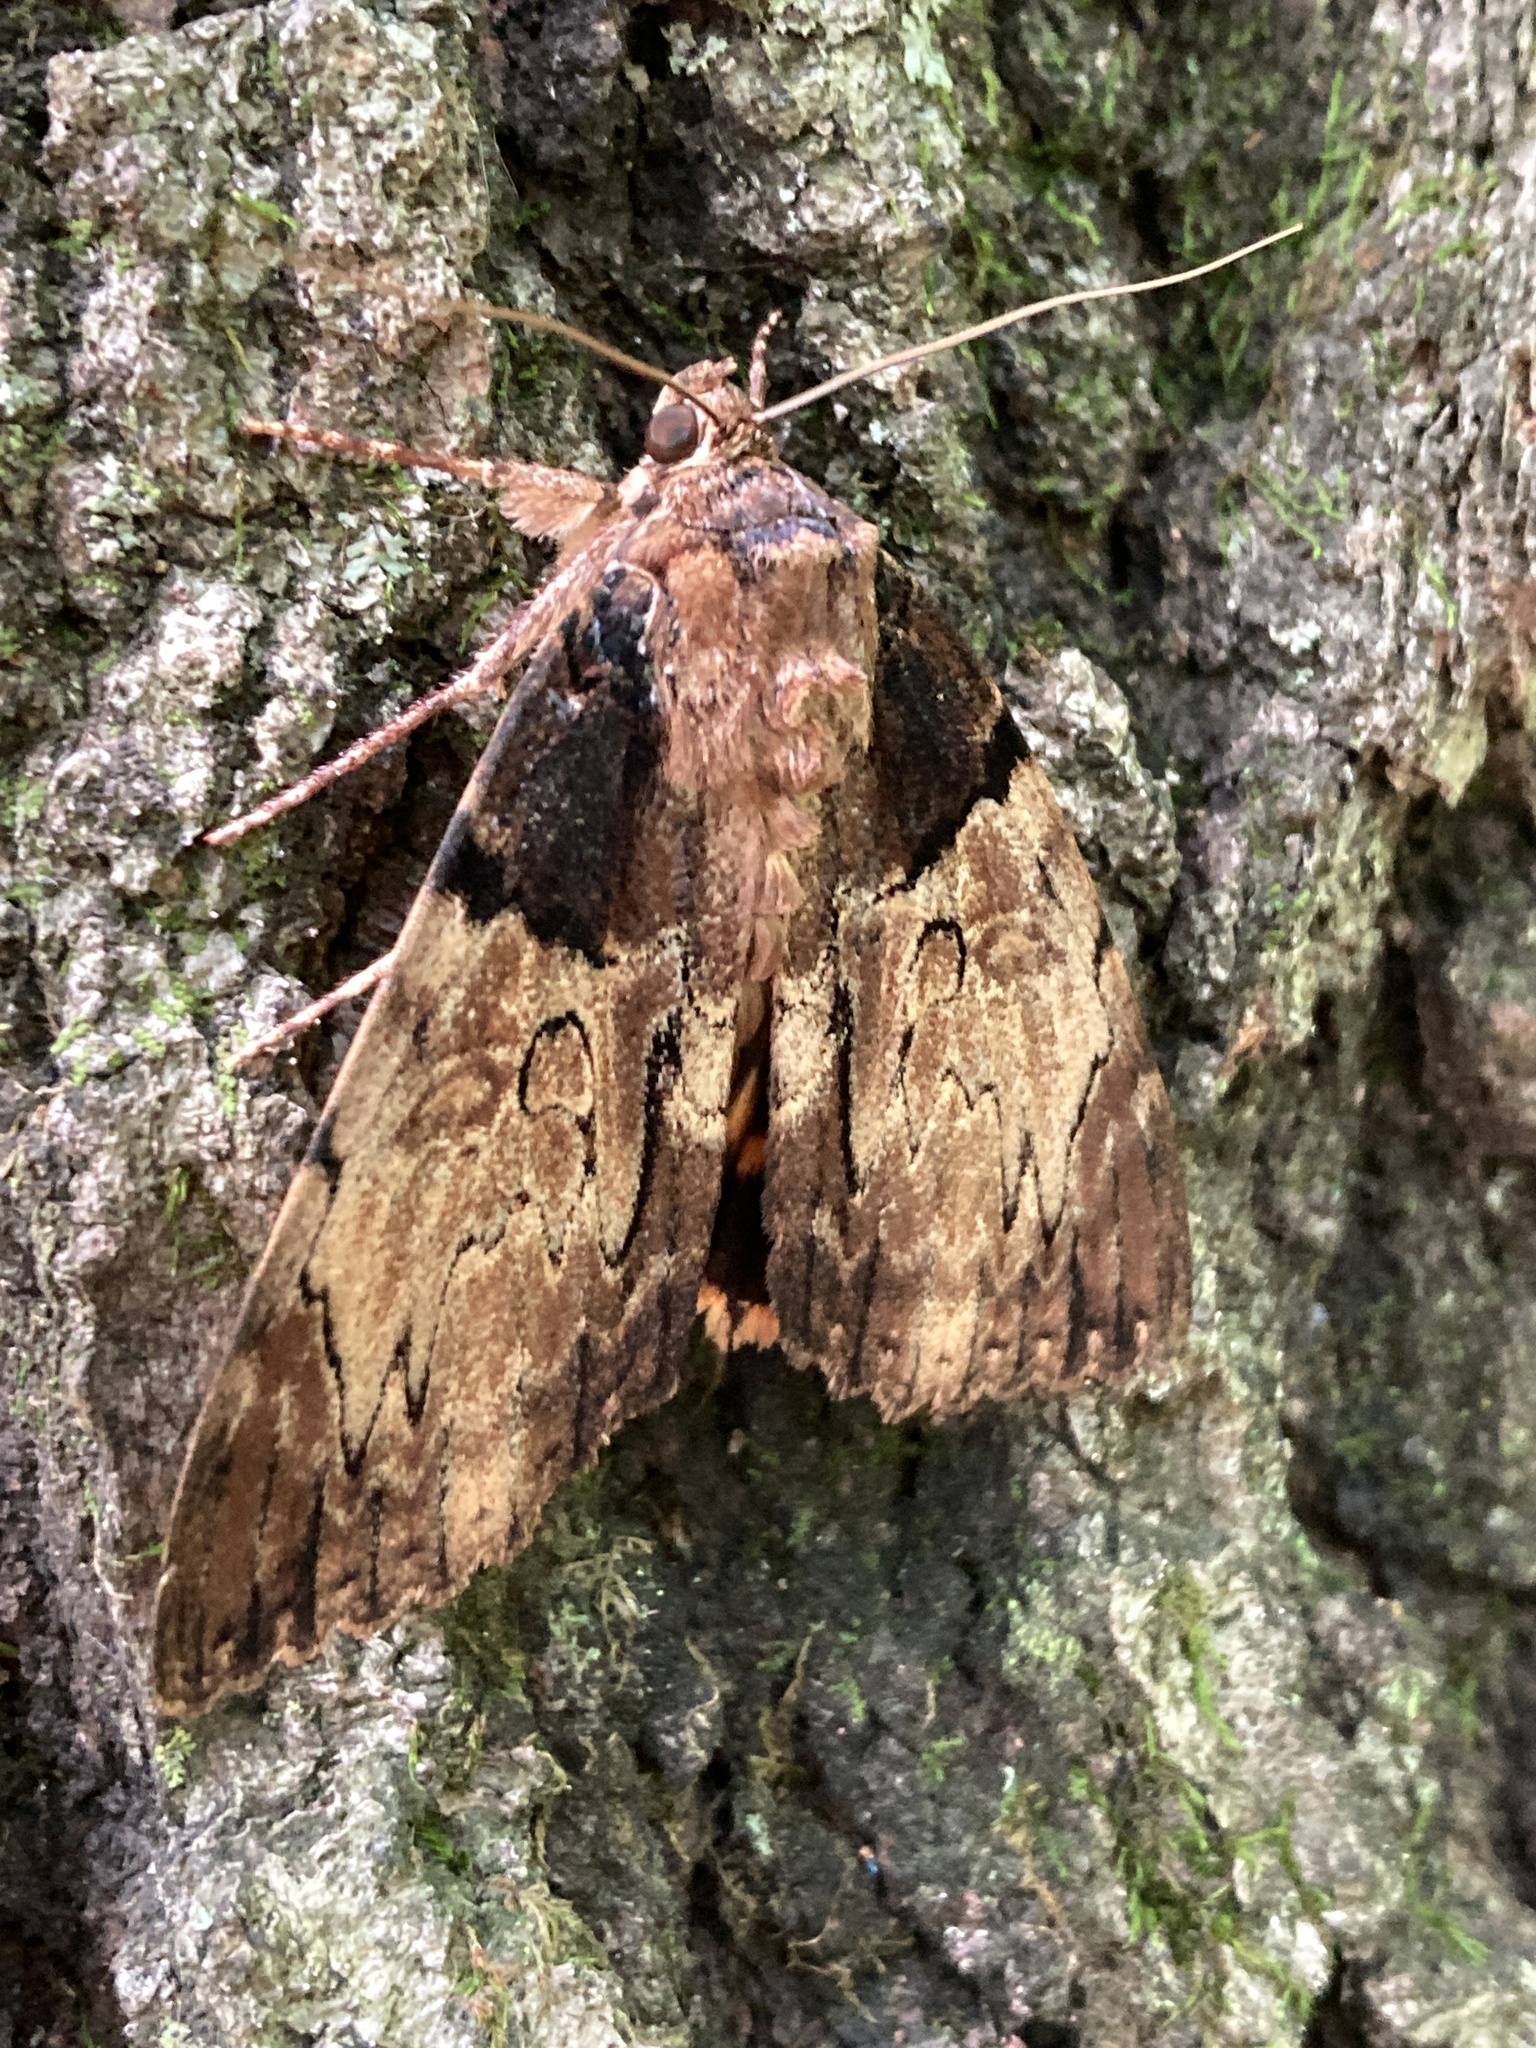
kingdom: Animalia
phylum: Arthropoda
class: Insecta
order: Lepidoptera
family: Erebidae
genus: Catocala
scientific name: Catocala nebulosa
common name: Clouded underwing
